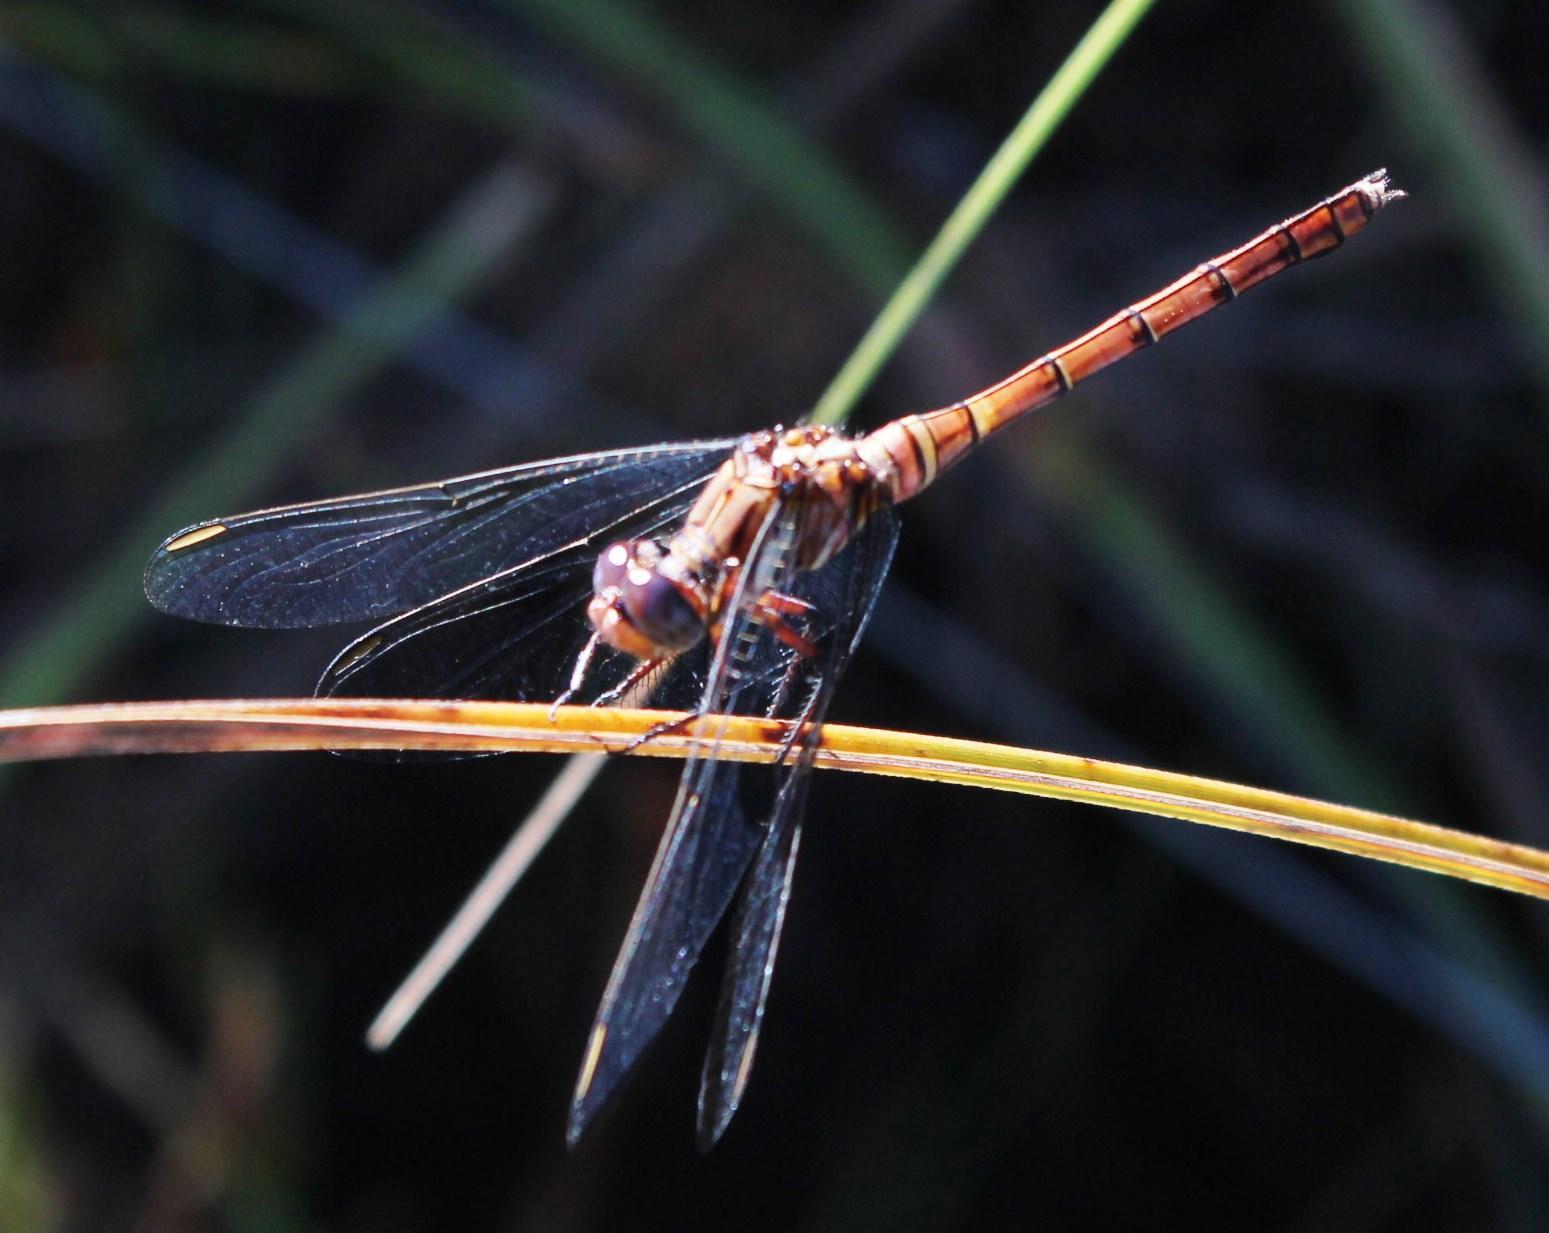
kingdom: Animalia
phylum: Arthropoda
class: Insecta
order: Odonata
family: Libellulidae
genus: Orthetrum
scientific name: Orthetrum julia
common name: Julia skimmer
